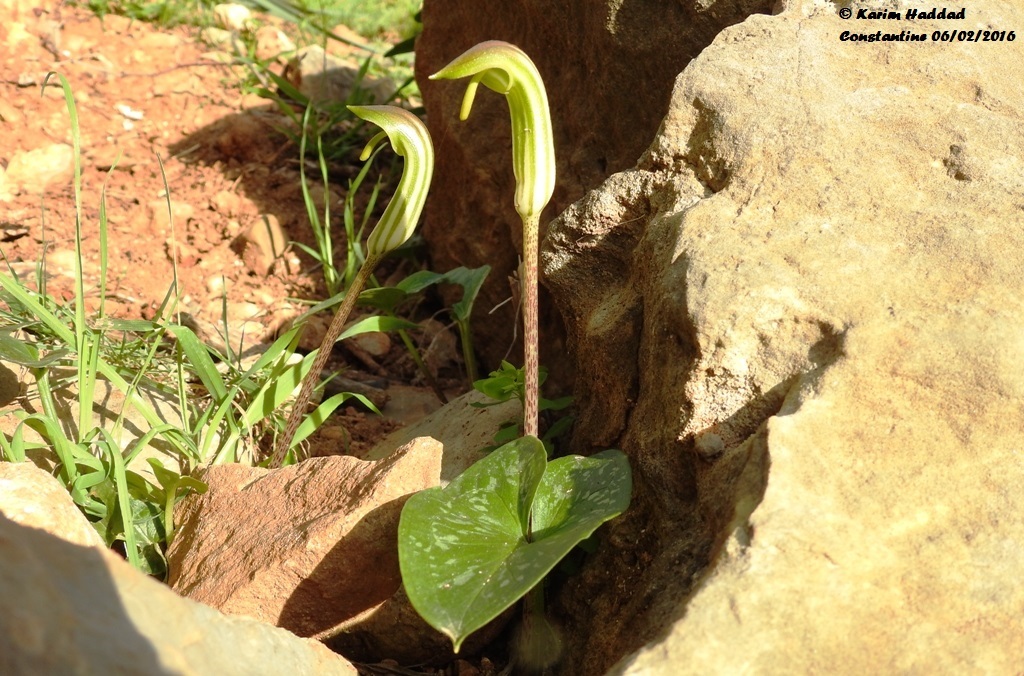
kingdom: Plantae
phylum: Tracheophyta
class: Liliopsida
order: Alismatales
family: Araceae
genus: Arisarum
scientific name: Arisarum vulgare
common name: Common arisarum
